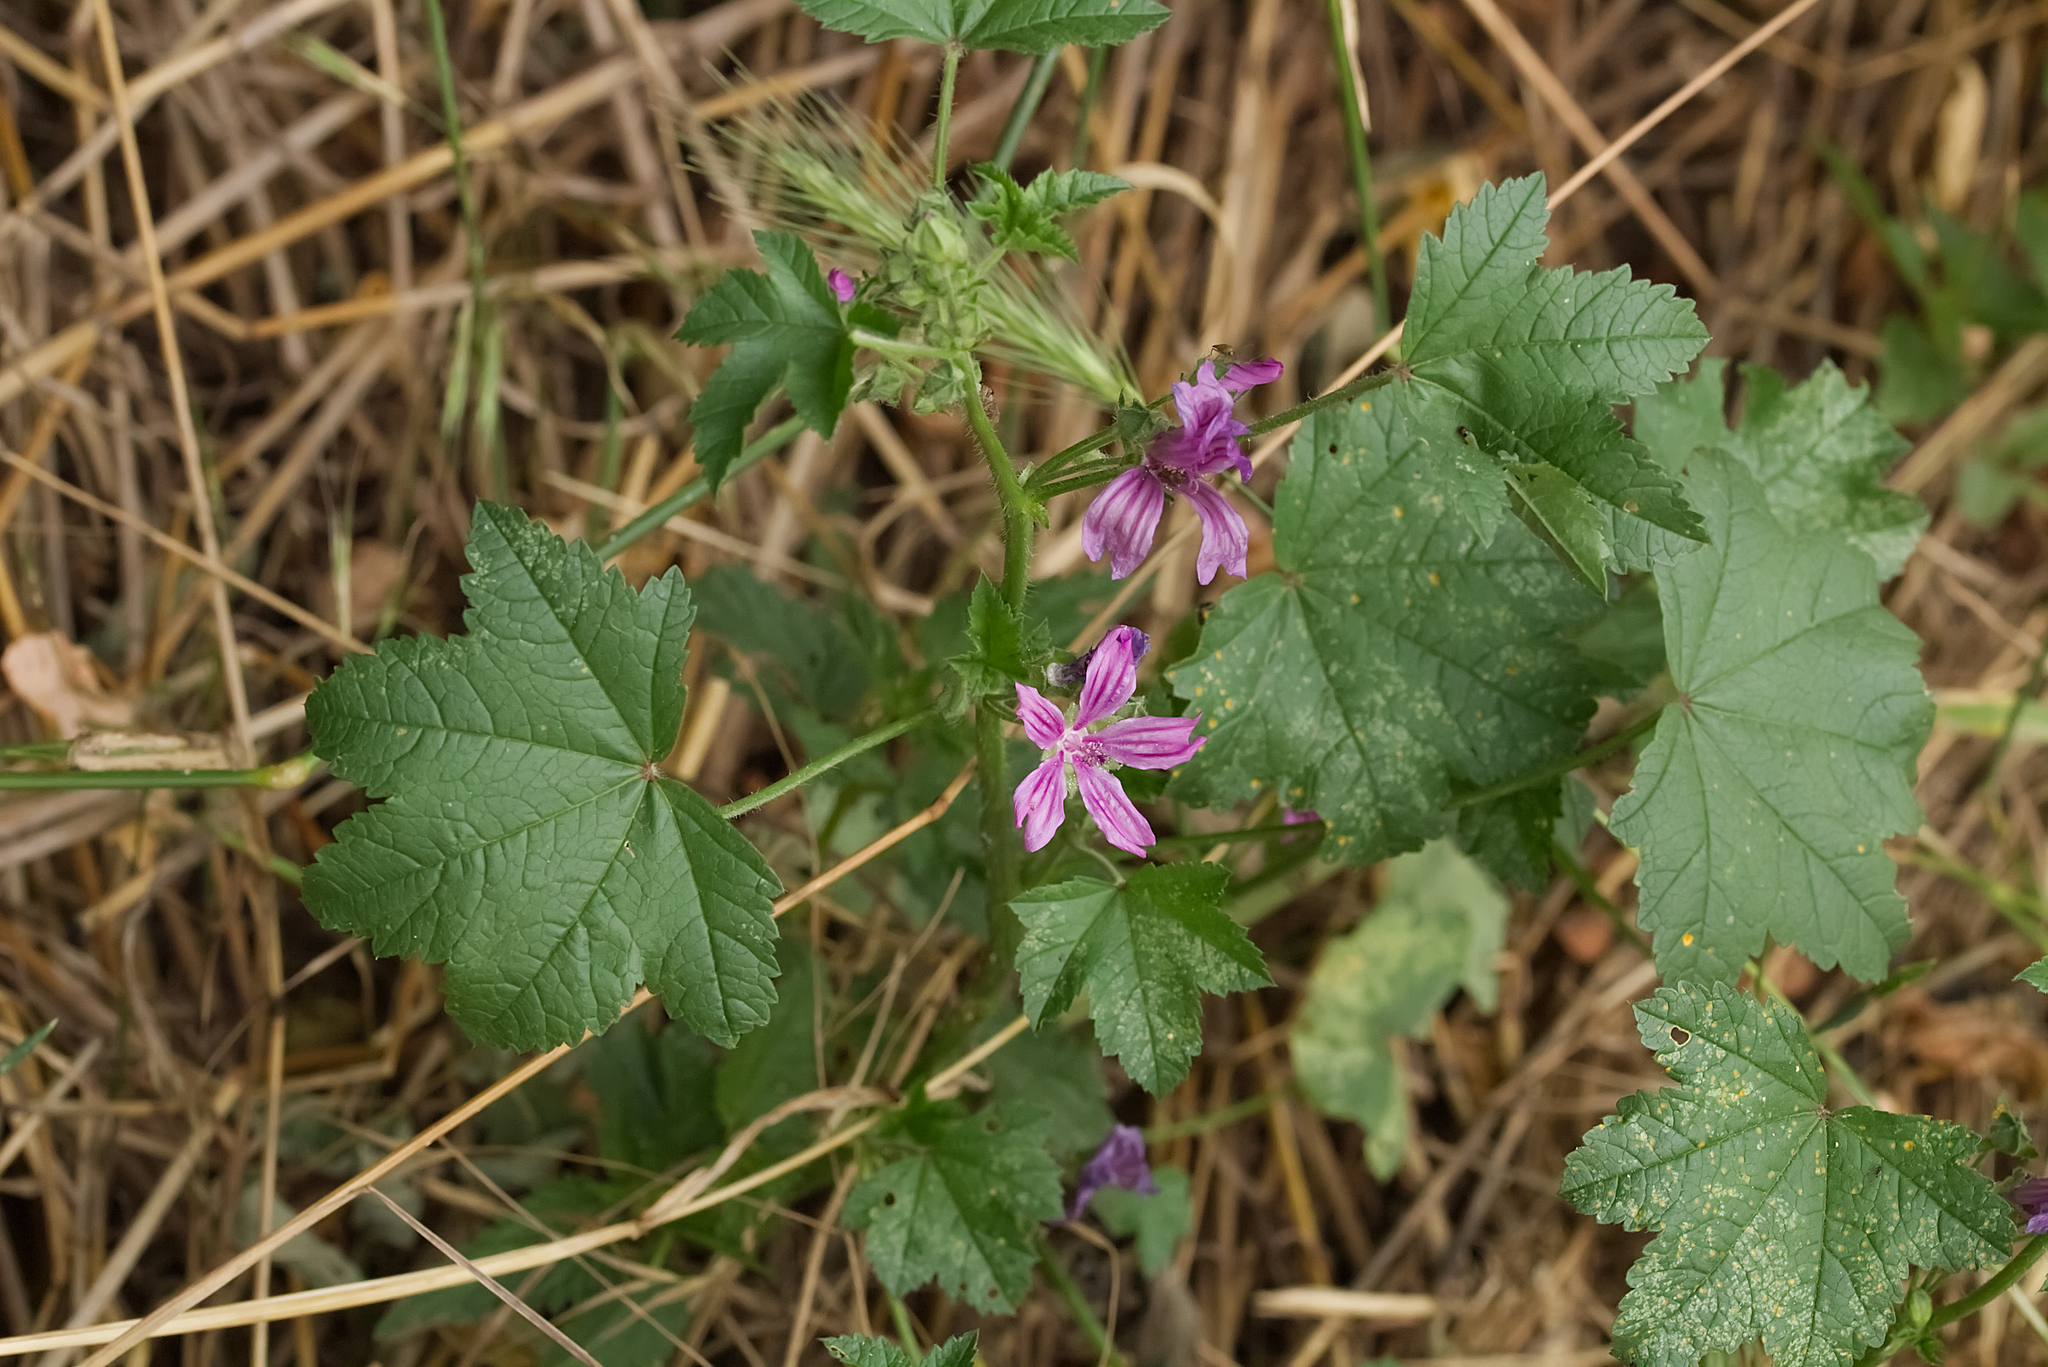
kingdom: Plantae
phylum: Tracheophyta
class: Magnoliopsida
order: Malvales
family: Malvaceae
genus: Malva
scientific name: Malva sylvestris
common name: Common mallow
